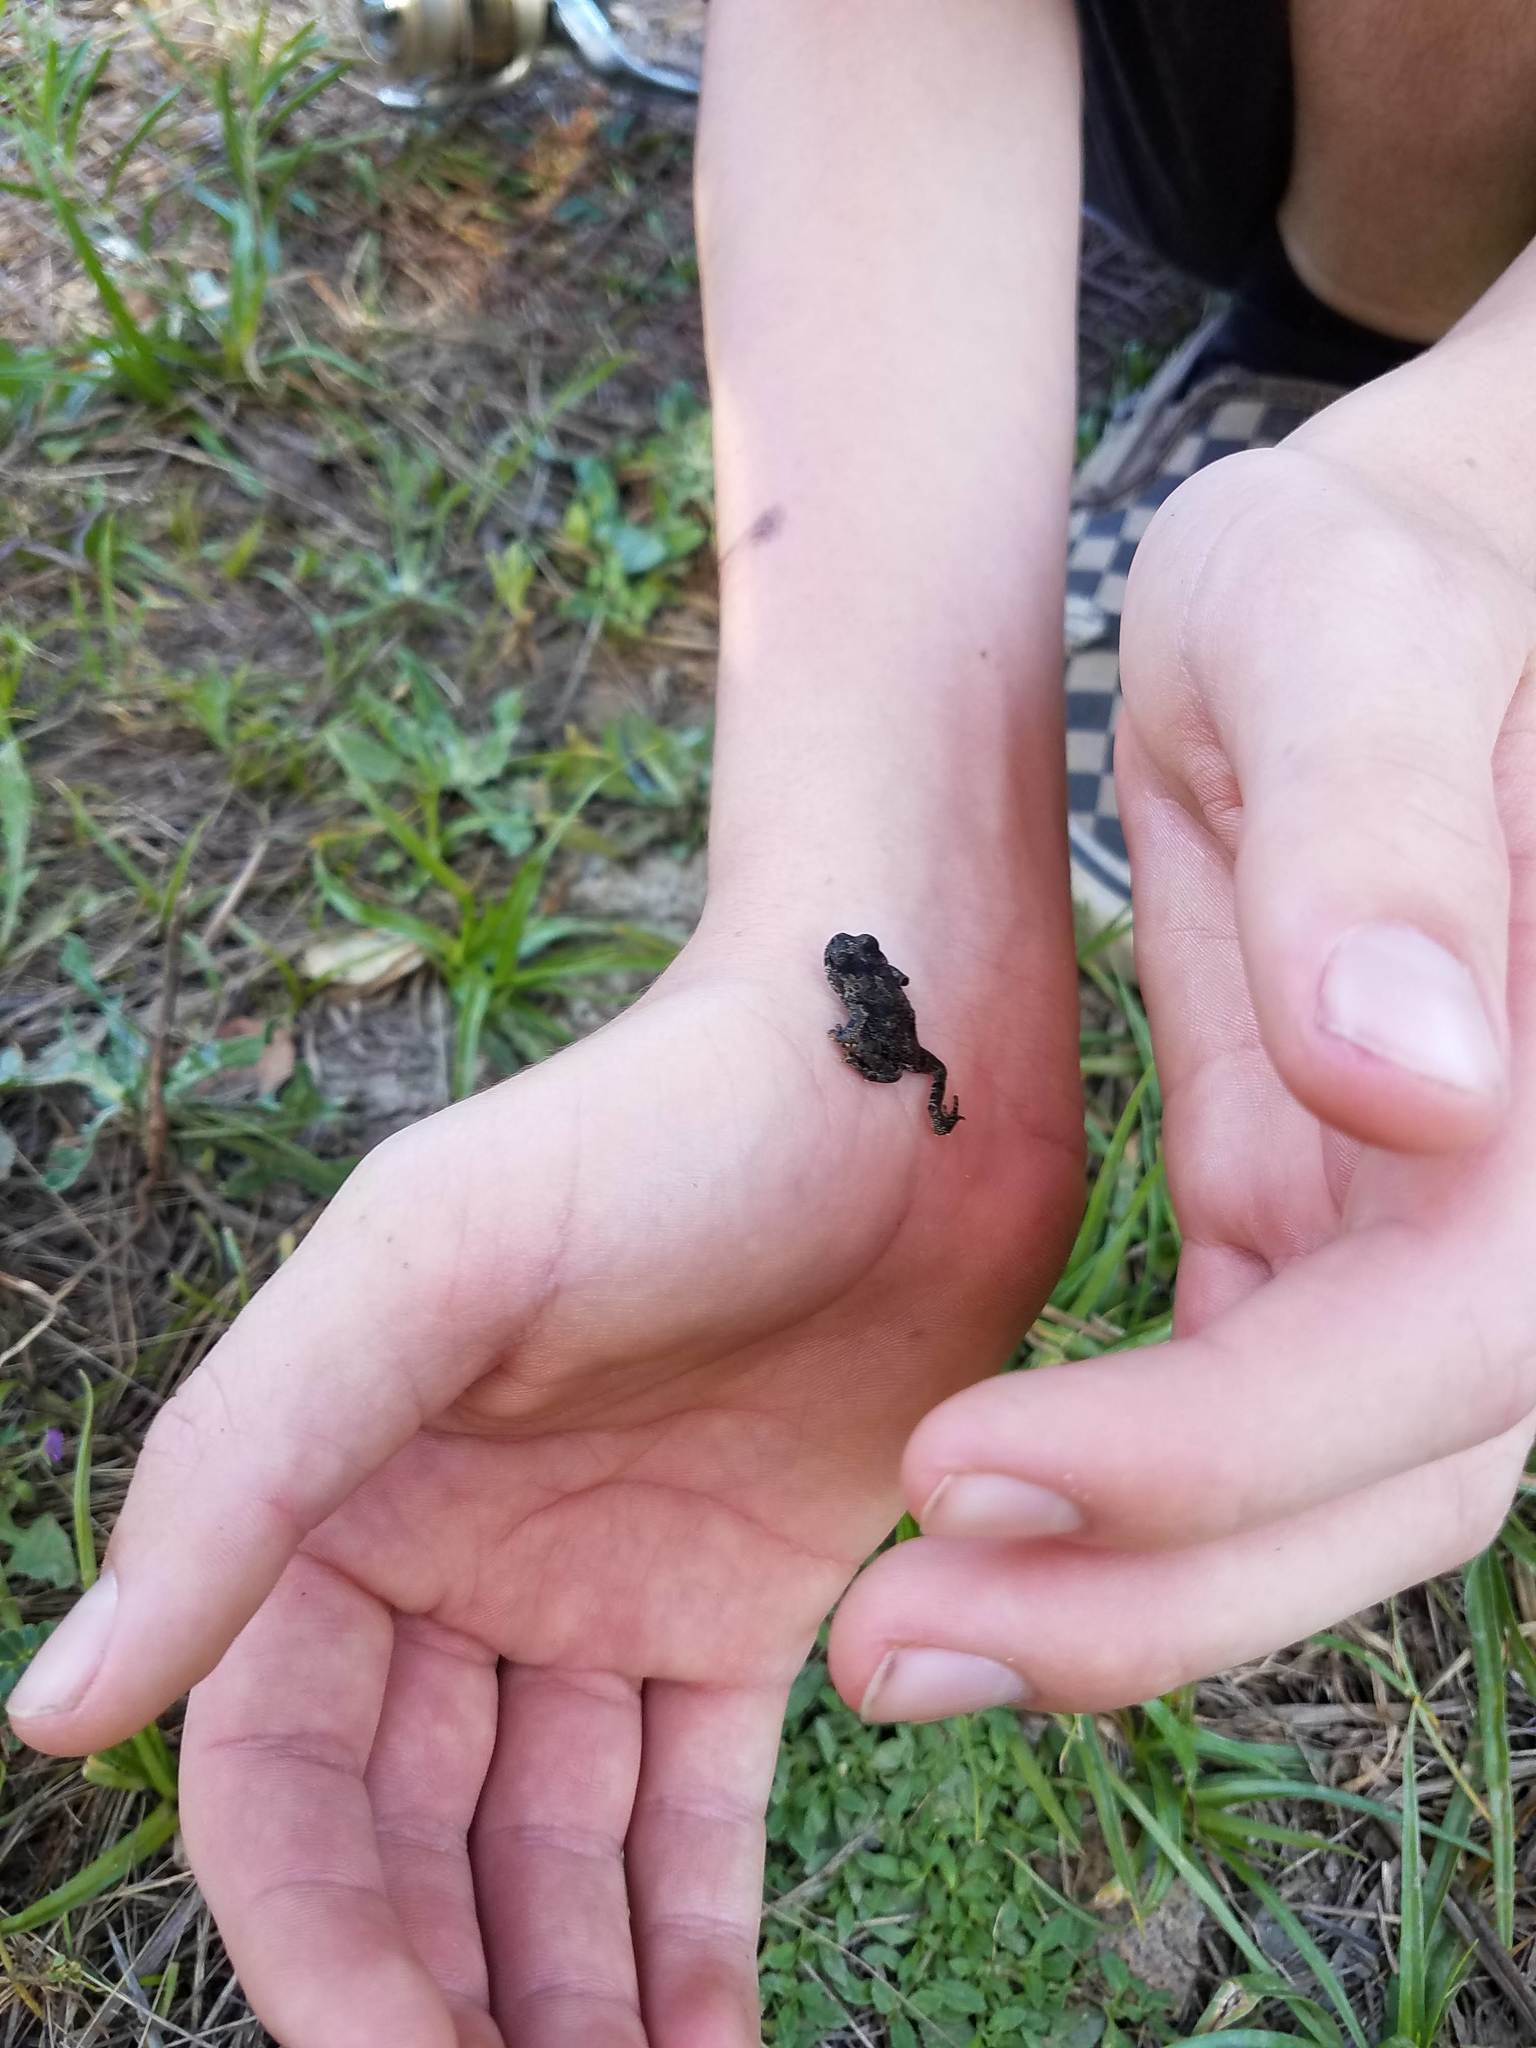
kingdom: Animalia
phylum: Chordata
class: Amphibia
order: Anura
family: Bufonidae
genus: Anaxyrus
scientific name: Anaxyrus boreas
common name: Western toad
